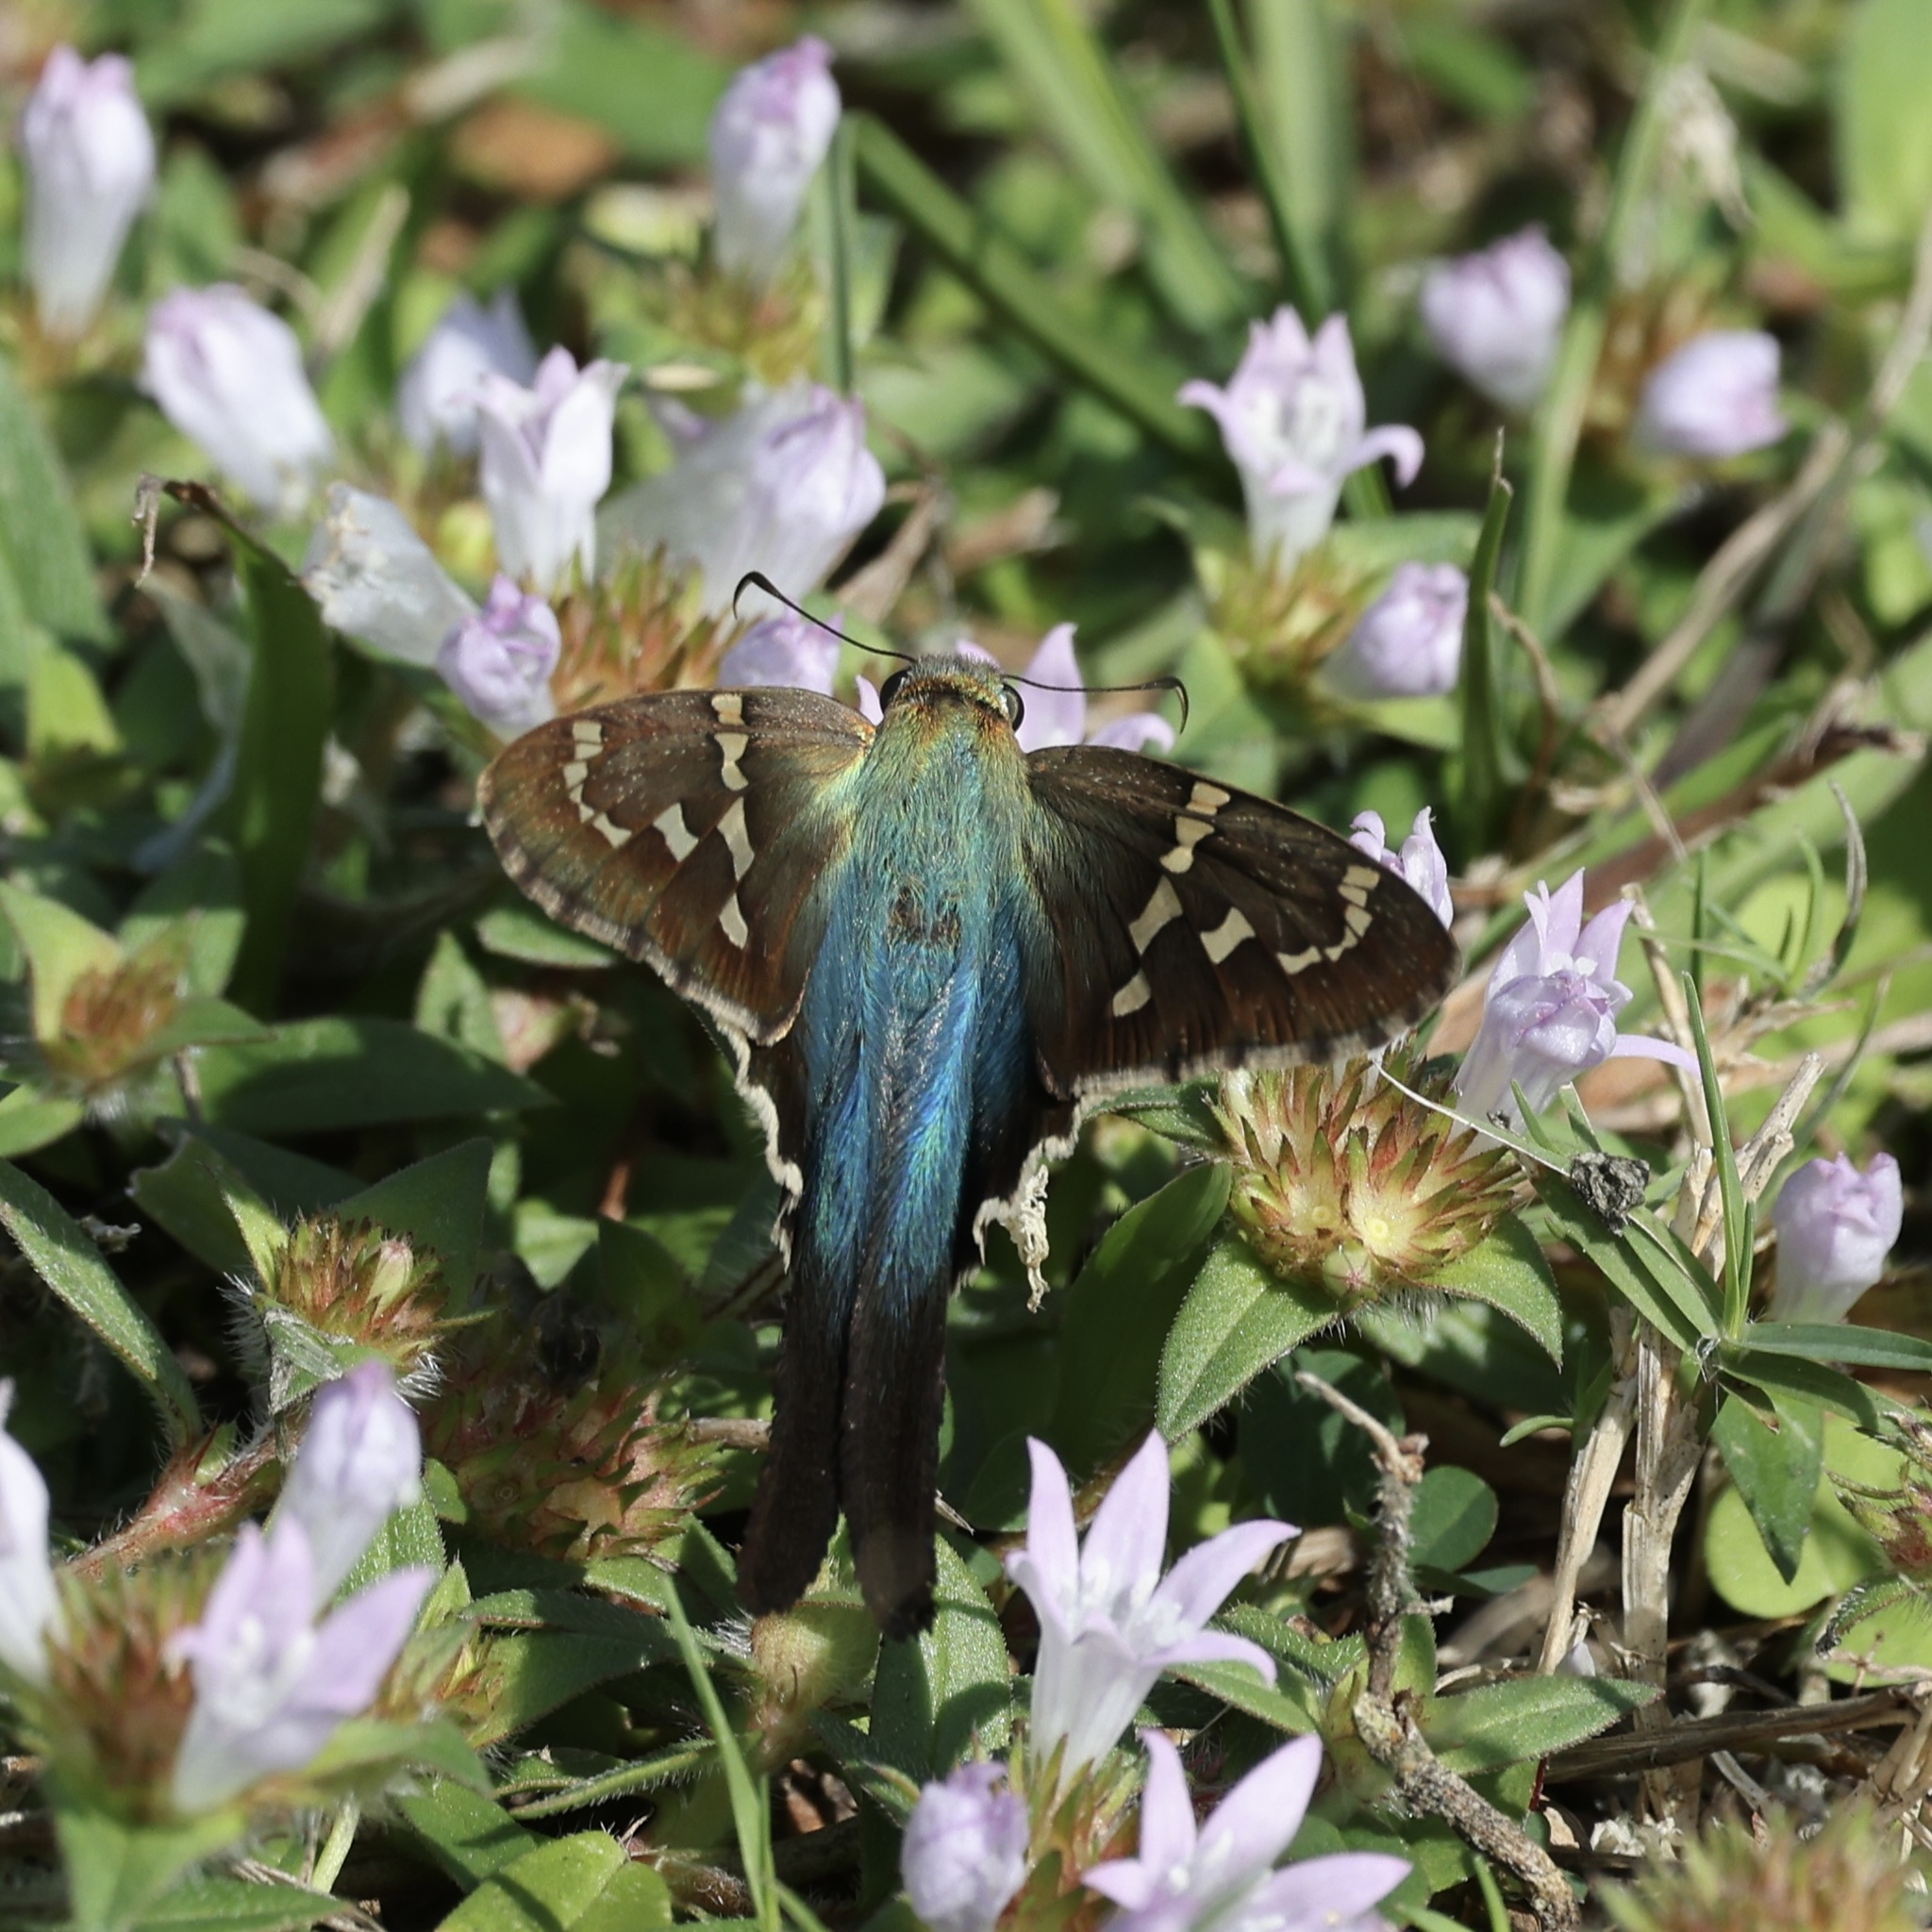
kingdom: Animalia
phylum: Arthropoda
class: Insecta
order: Lepidoptera
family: Hesperiidae
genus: Urbanus
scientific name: Urbanus proteus
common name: Long-tailed skipper
